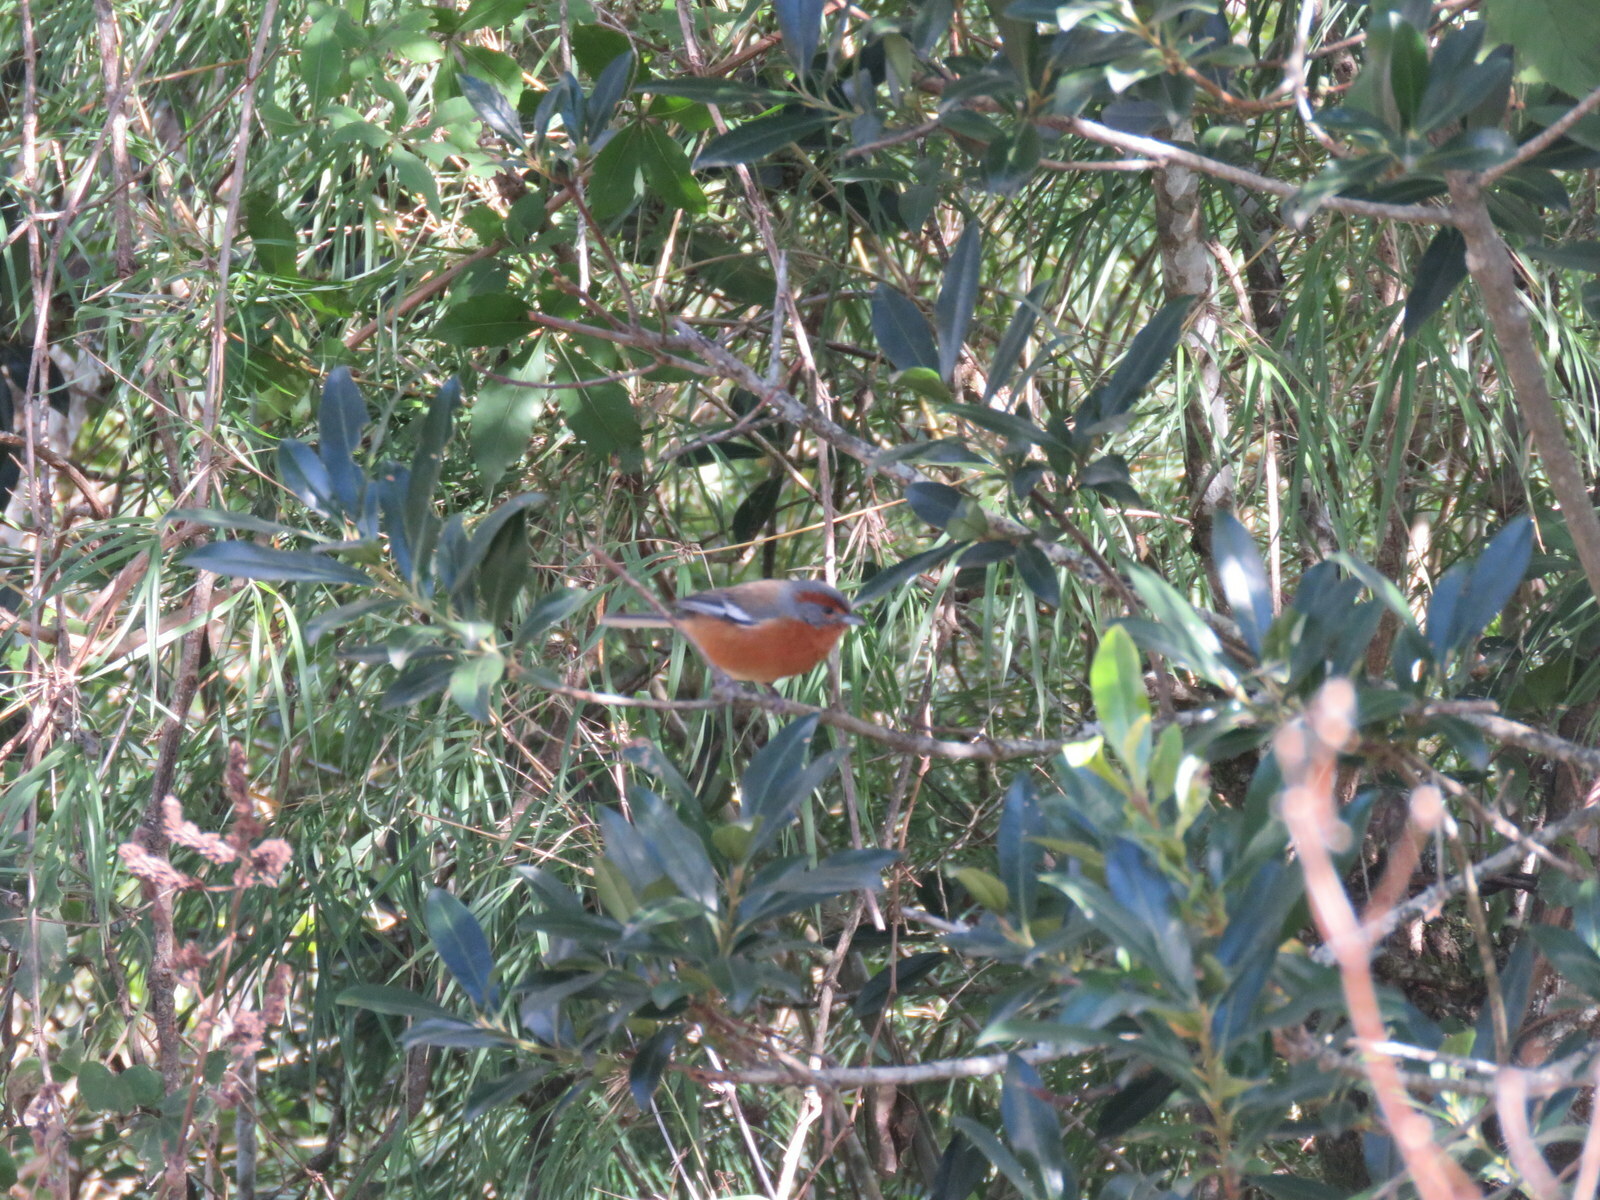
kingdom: Animalia
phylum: Chordata
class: Aves
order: Passeriformes
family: Thraupidae
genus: Microspingus
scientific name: Microspingus erythrophrys
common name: Rusty-browed warbling-finch
